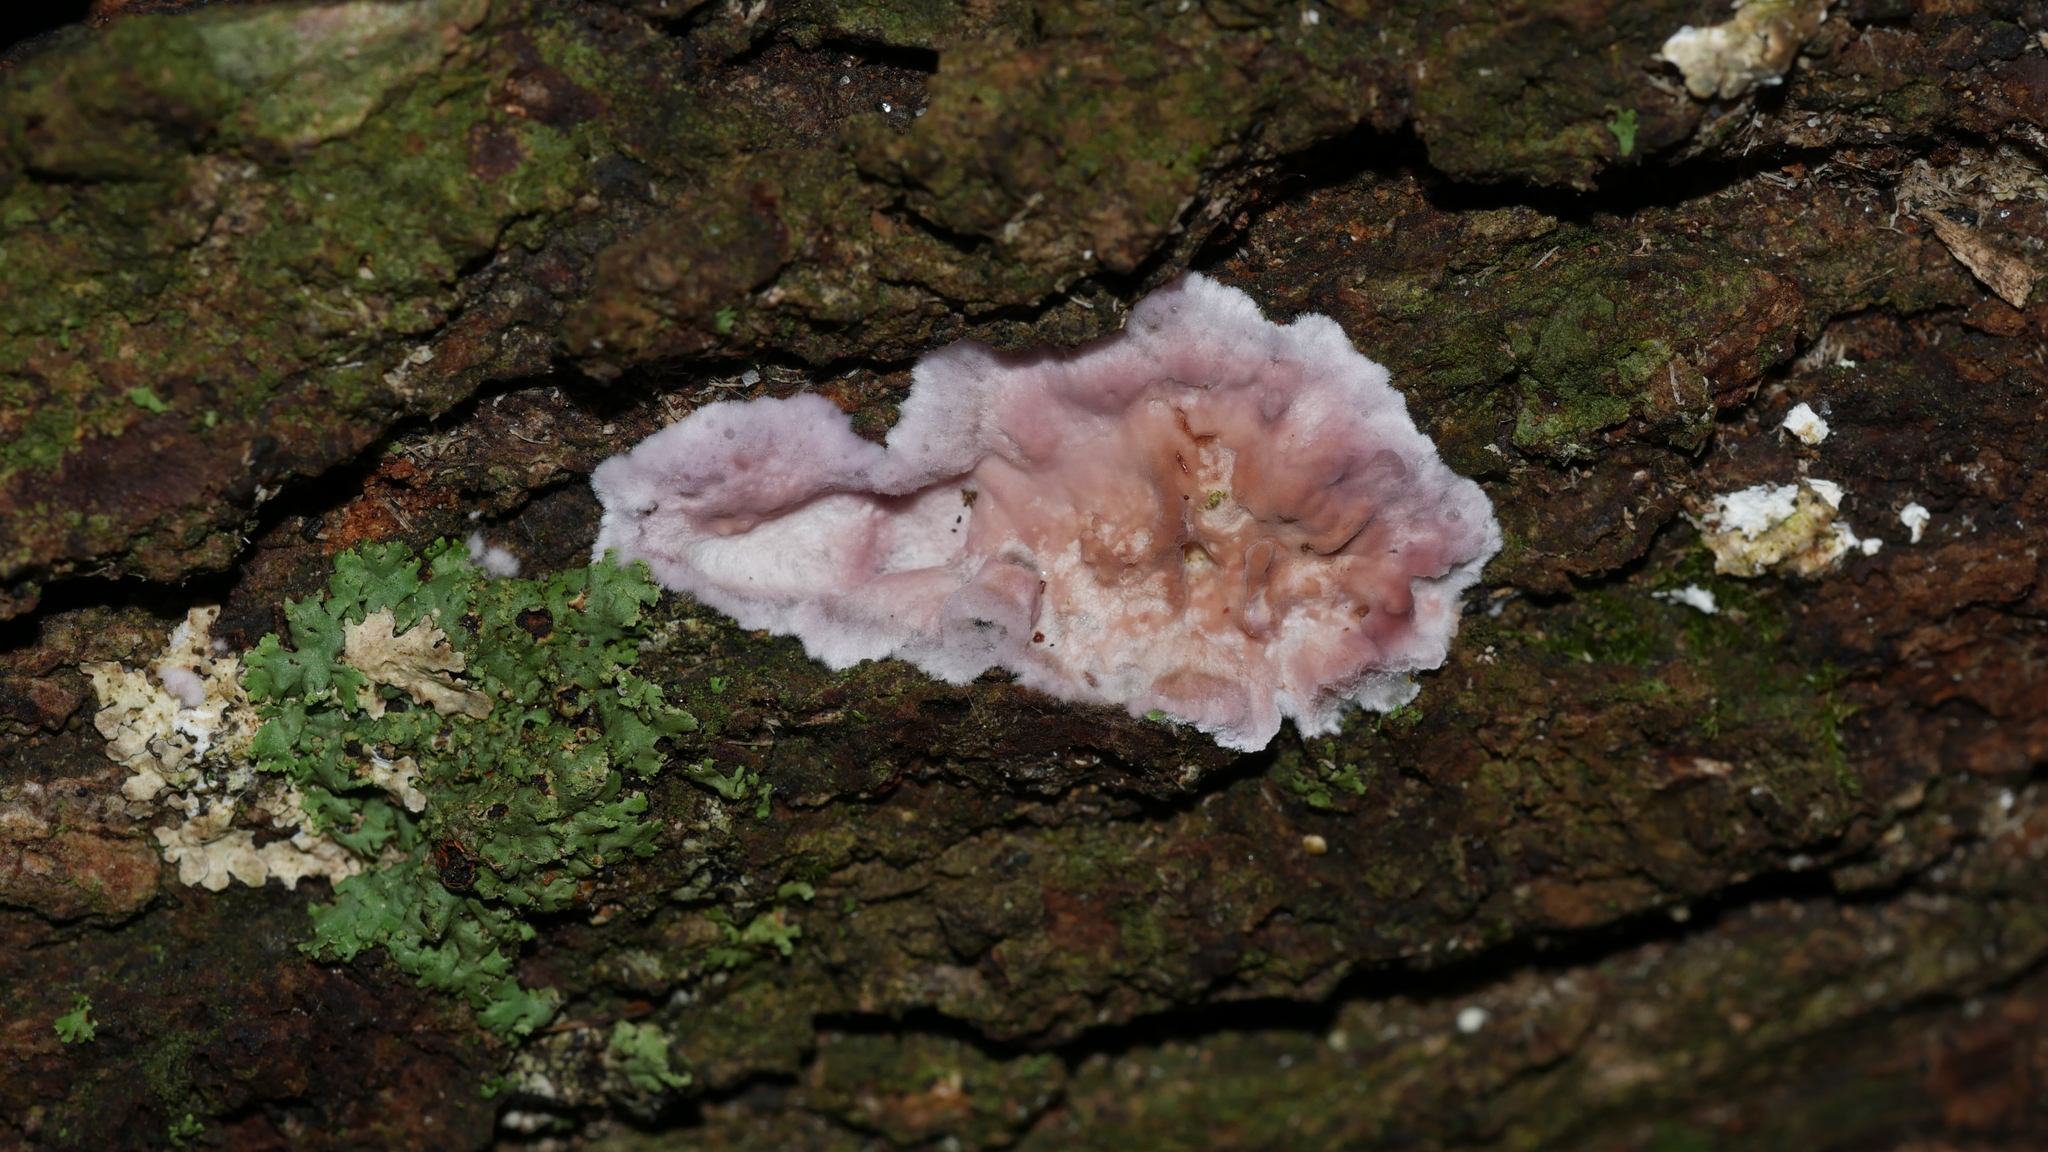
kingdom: Fungi
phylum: Basidiomycota
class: Agaricomycetes
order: Agaricales
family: Cyphellaceae
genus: Chondrostereum
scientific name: Chondrostereum purpureum
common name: Silver leaf disease
